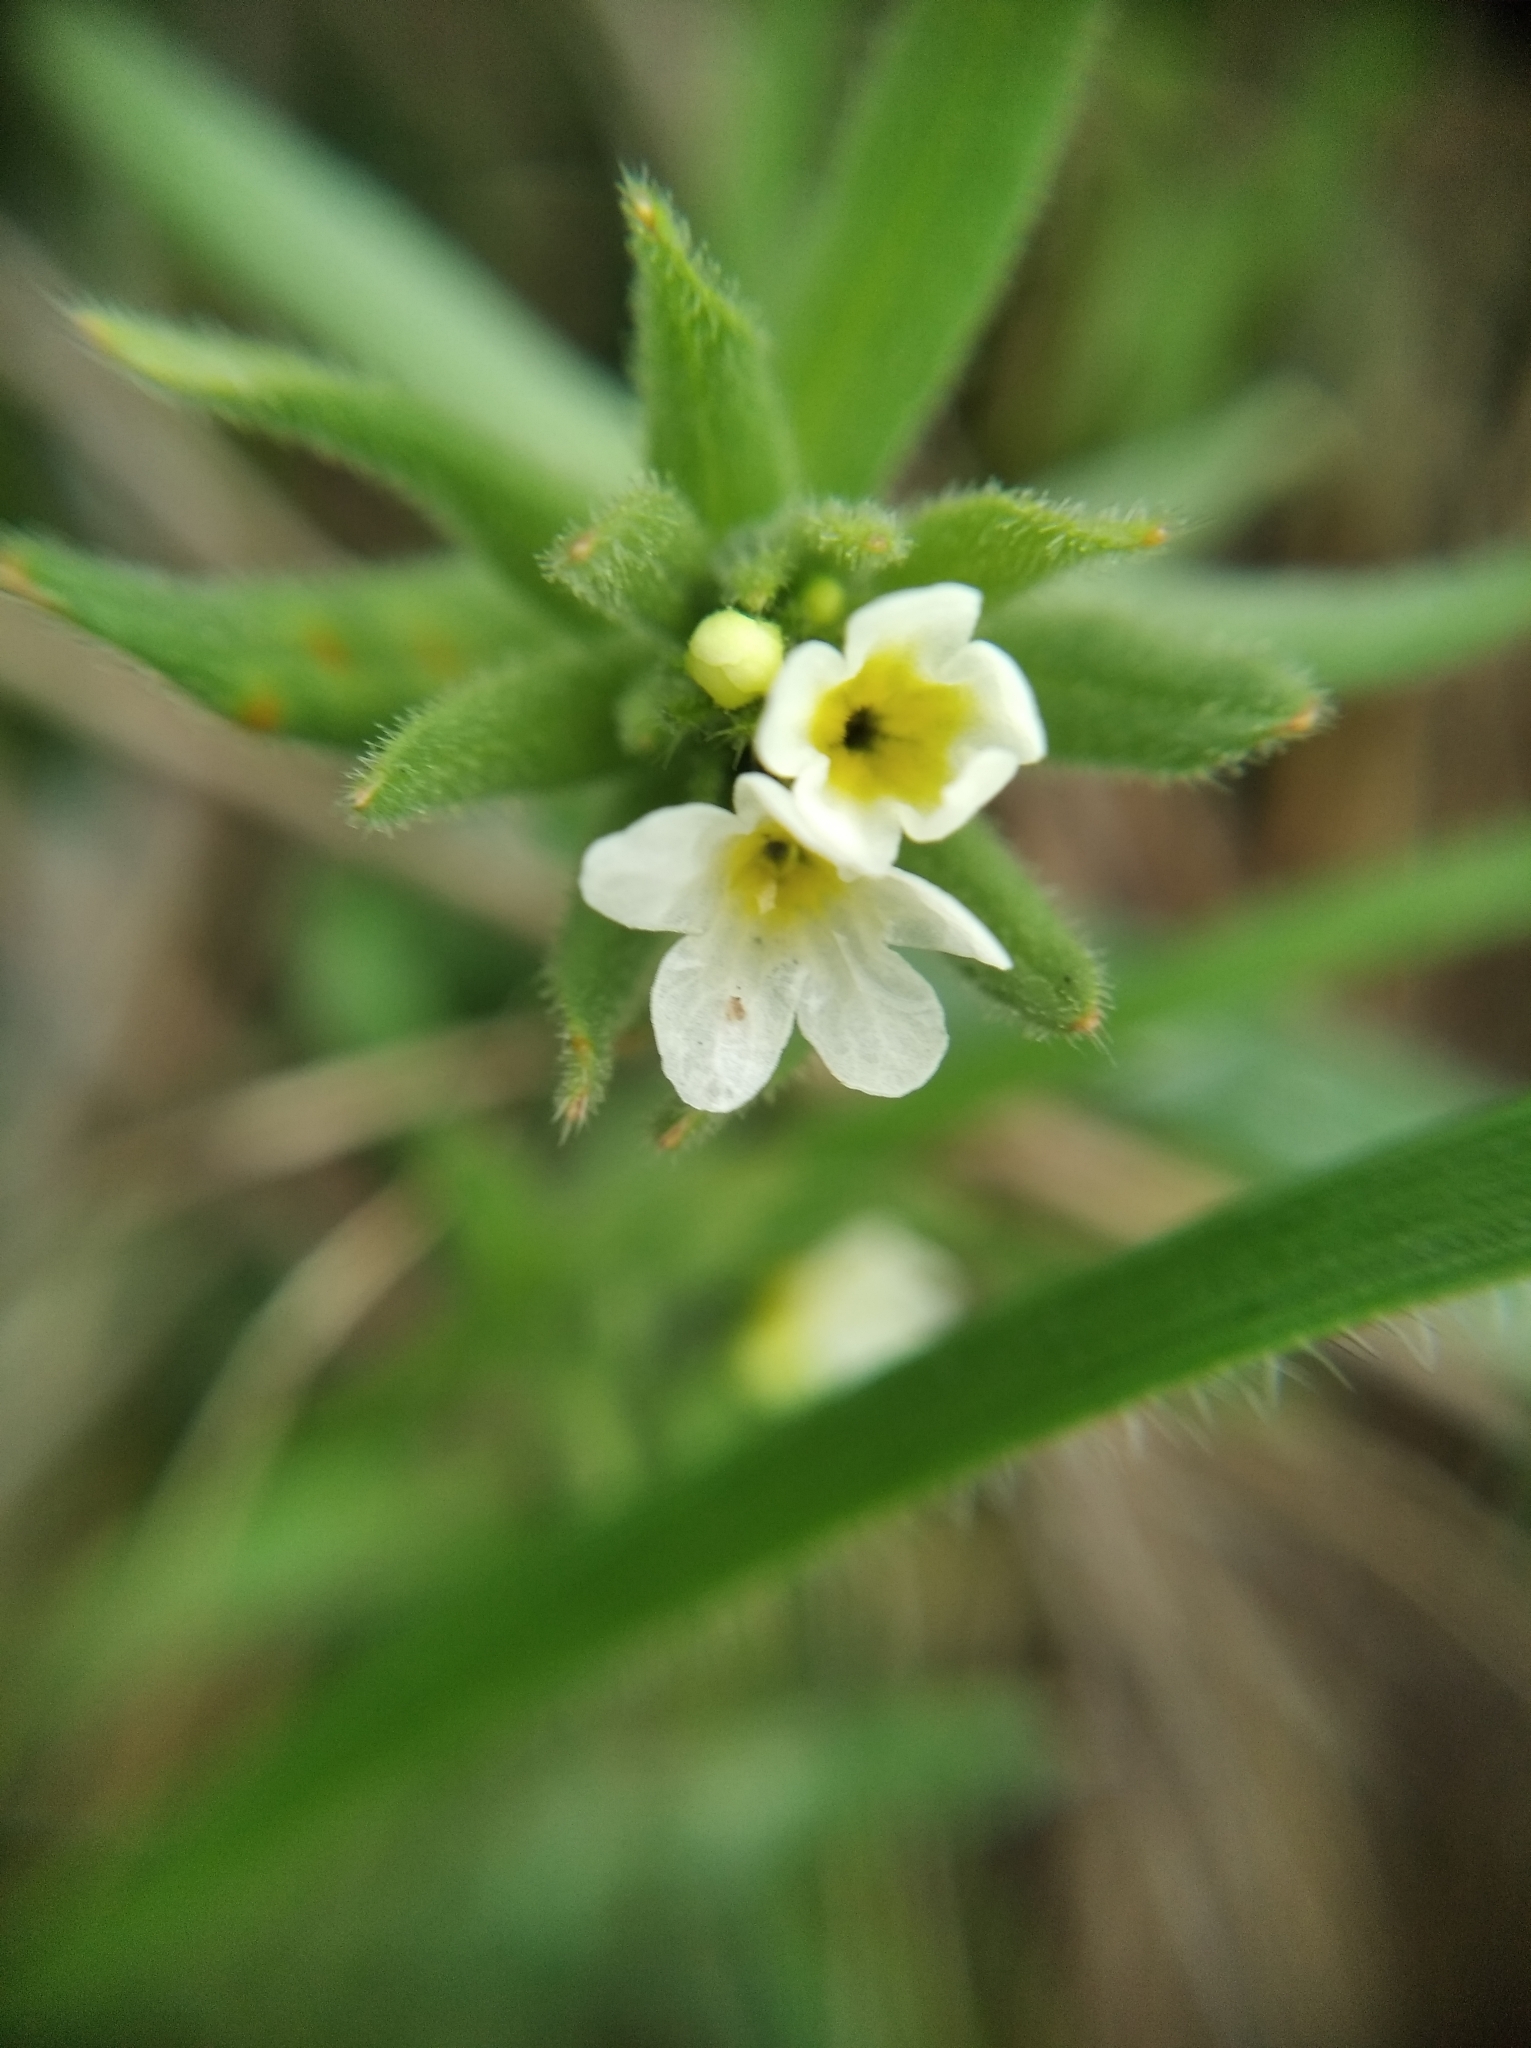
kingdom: Plantae
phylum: Tracheophyta
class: Magnoliopsida
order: Boraginales
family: Boraginaceae
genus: Buglossoides
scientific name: Buglossoides czernjajevii
